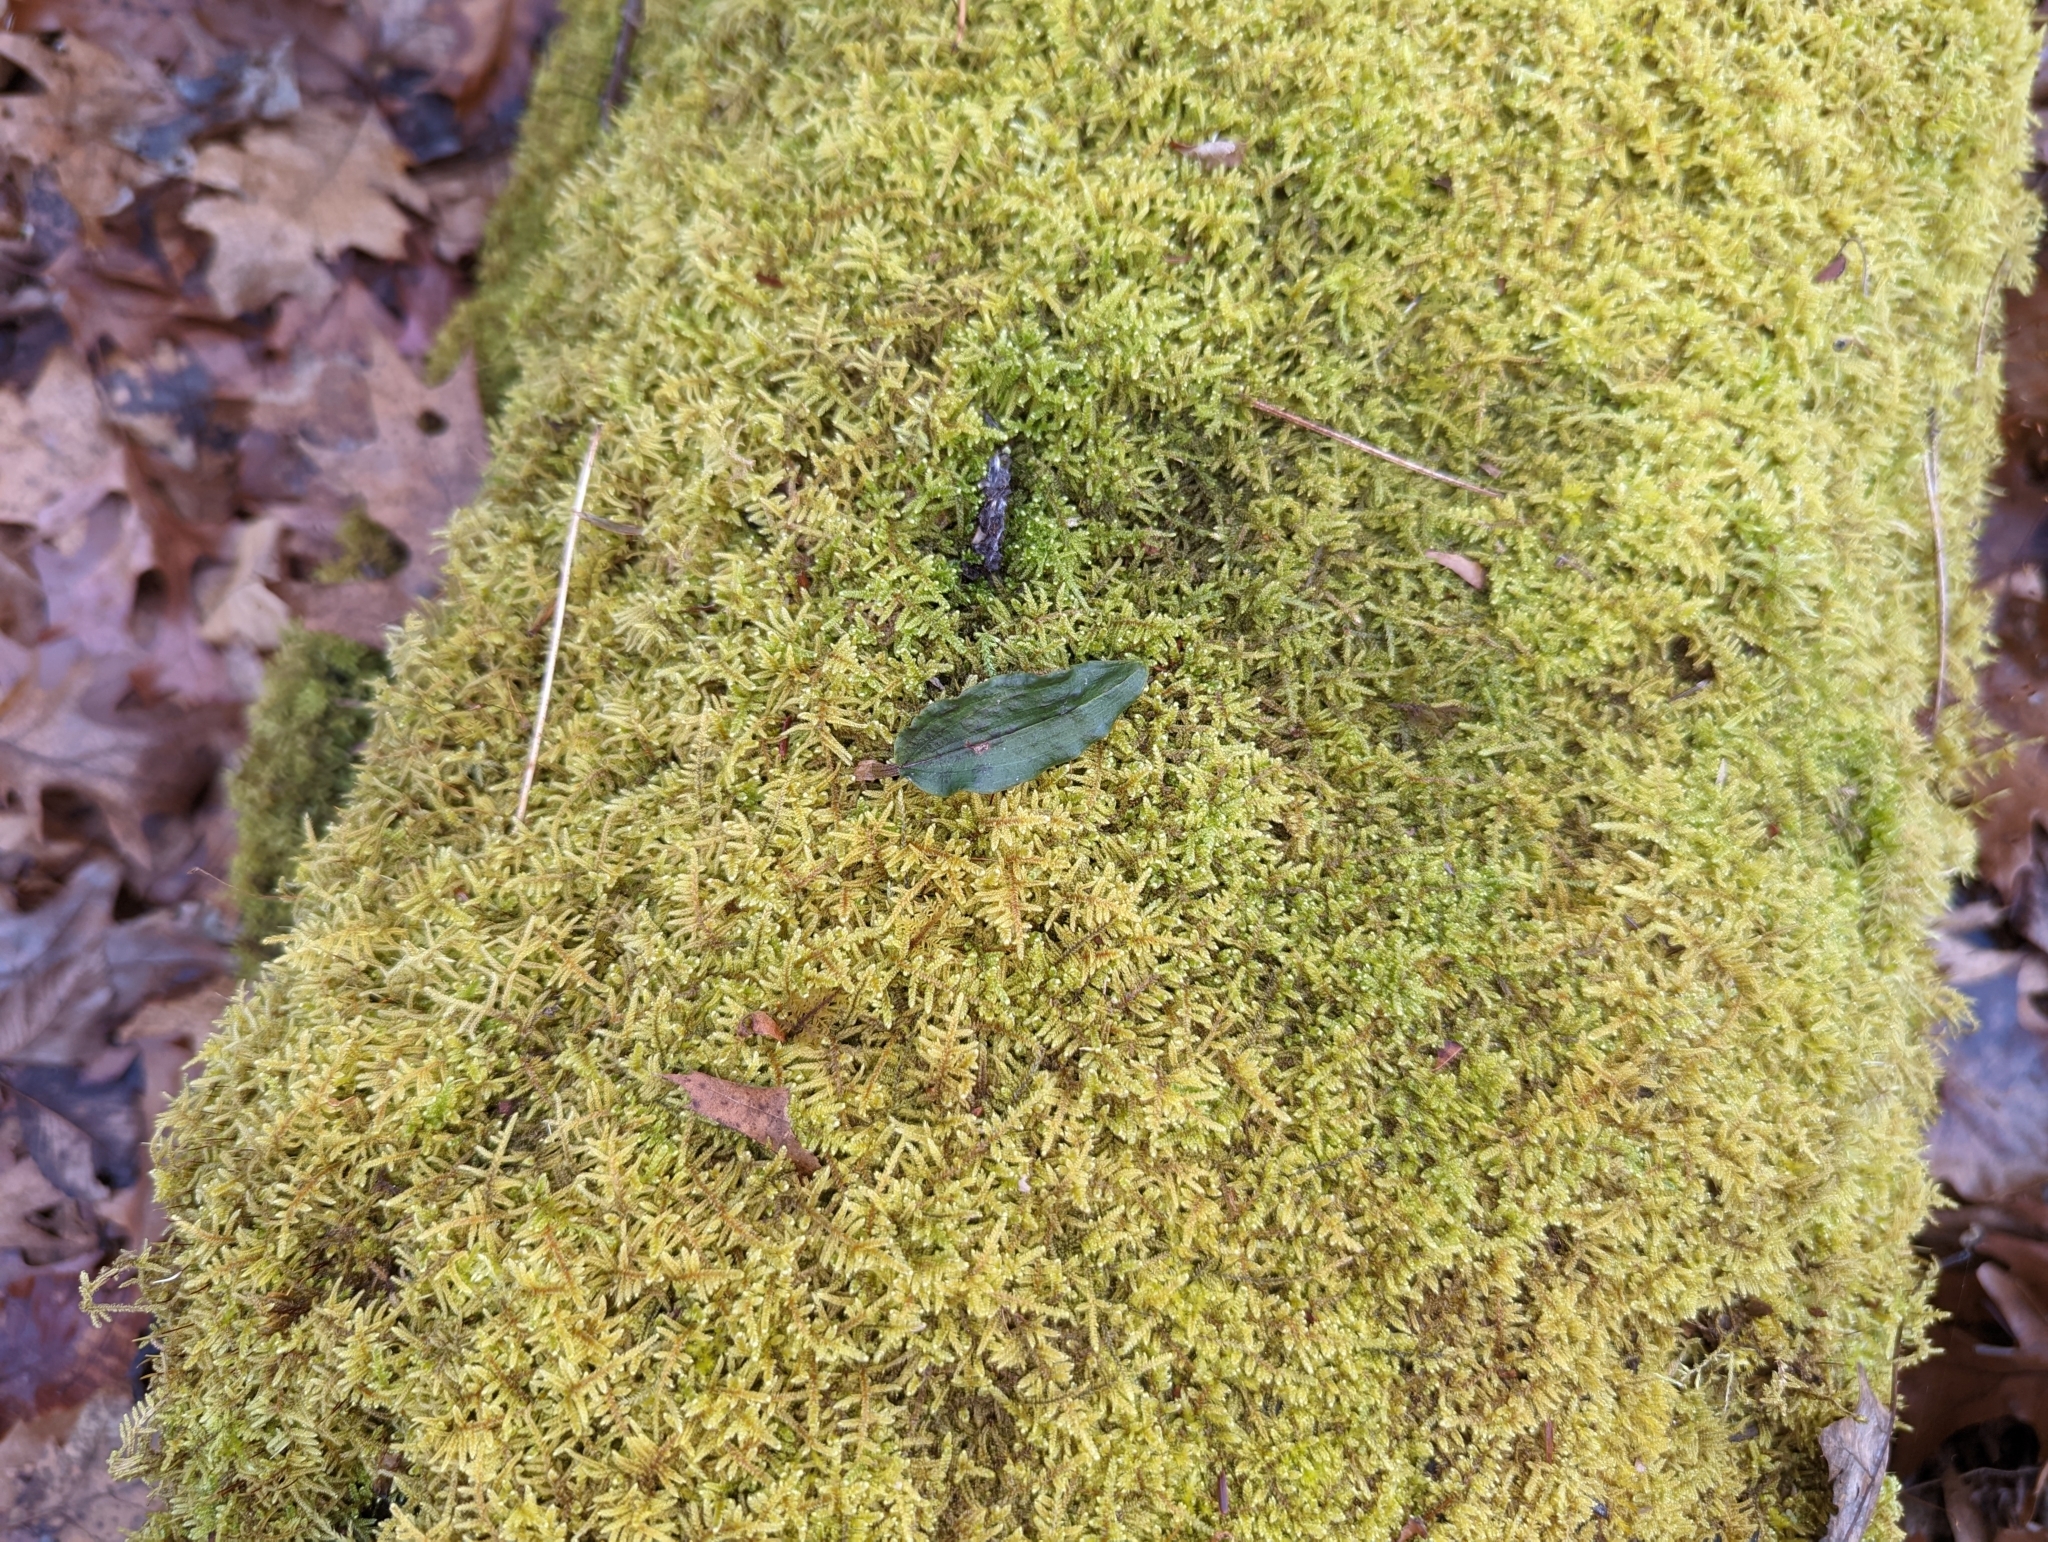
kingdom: Plantae
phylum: Tracheophyta
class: Liliopsida
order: Asparagales
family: Orchidaceae
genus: Tipularia
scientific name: Tipularia discolor
